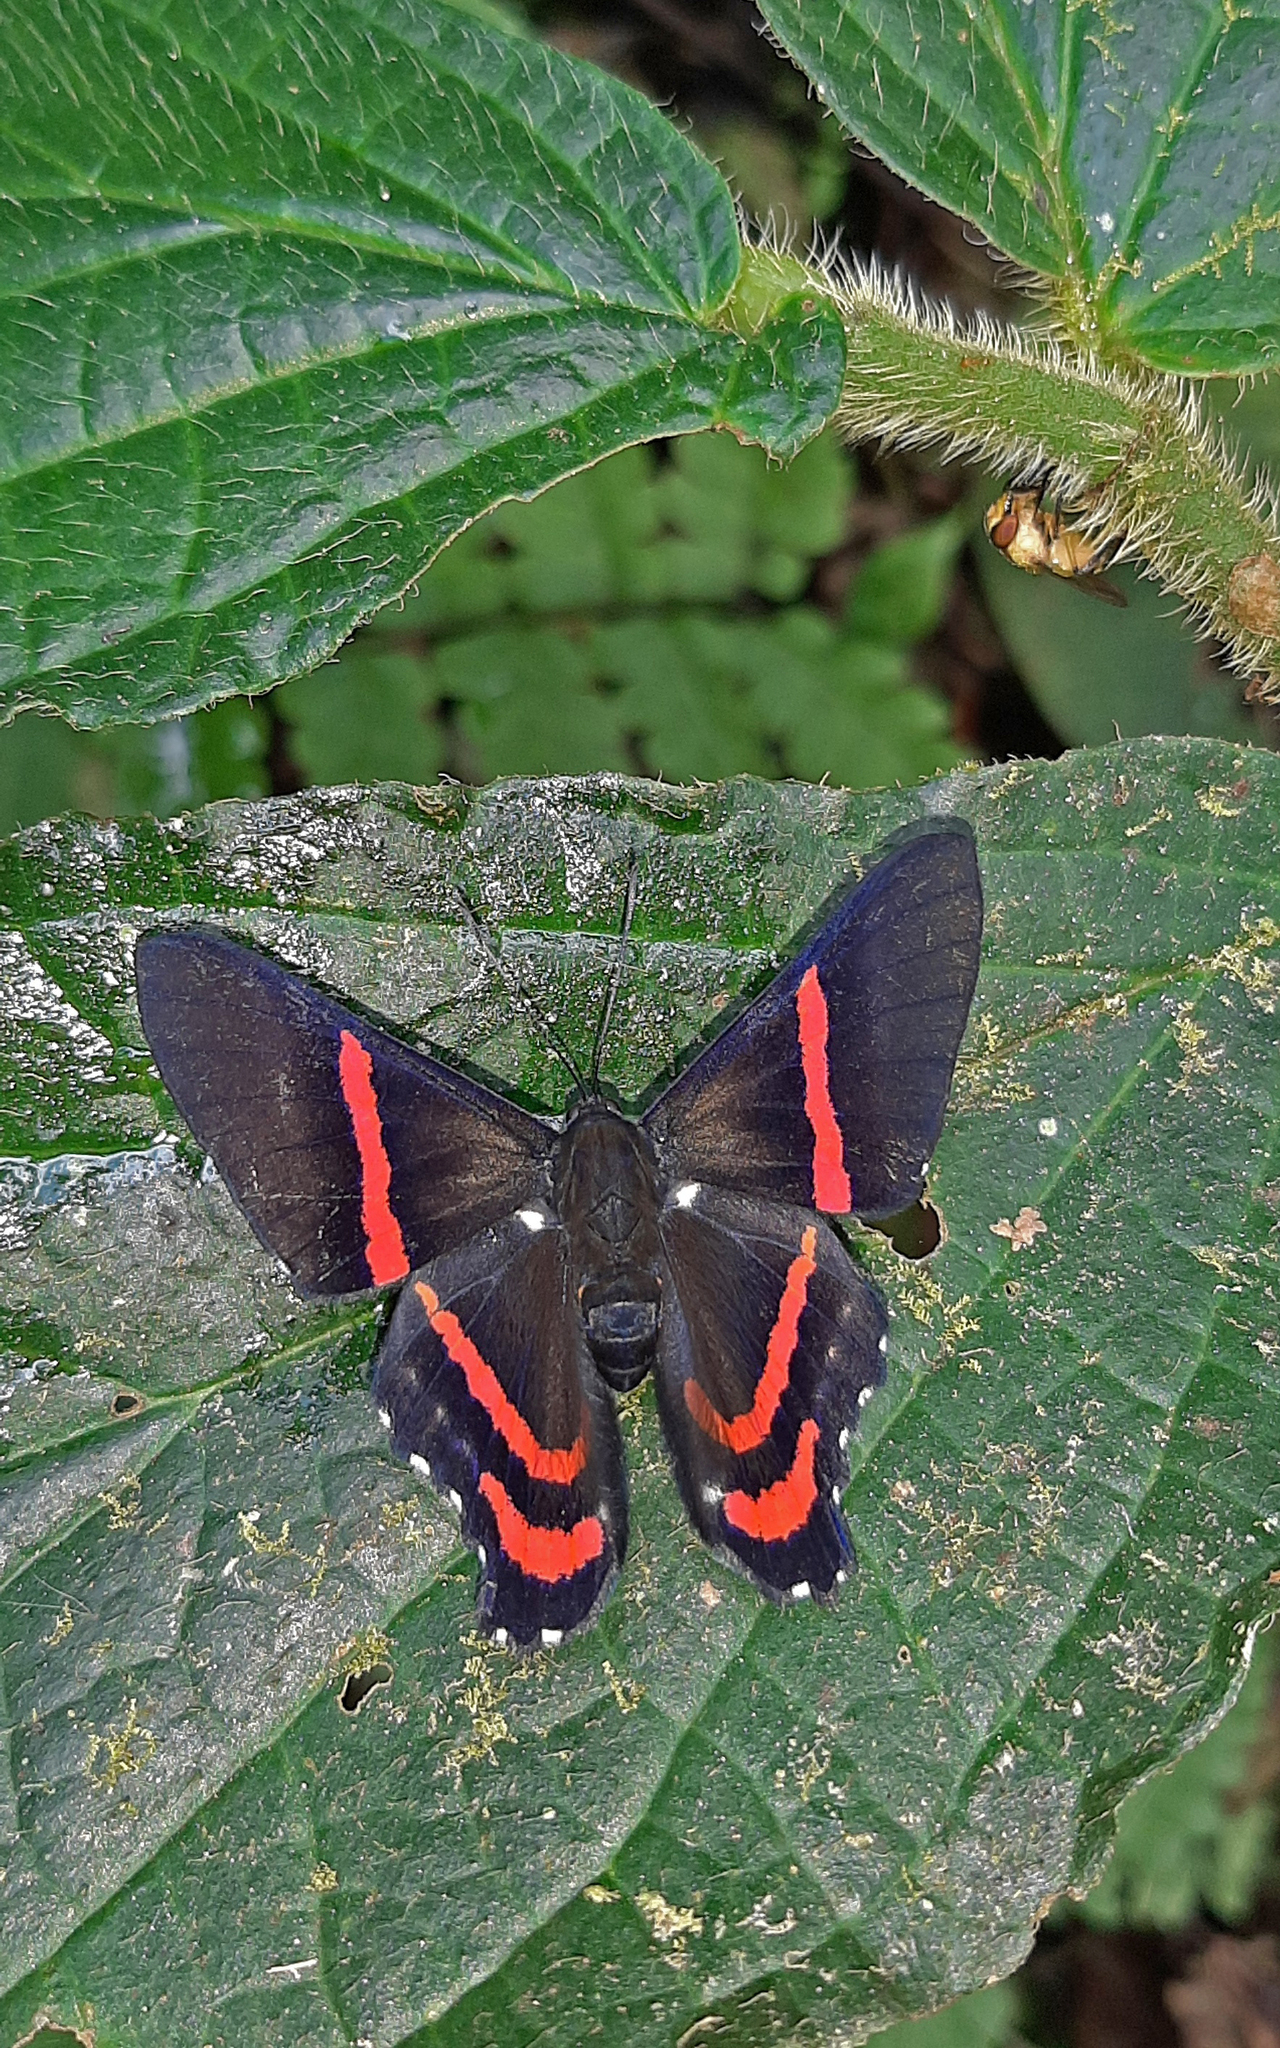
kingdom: Animalia
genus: Ancyluris
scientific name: Ancyluris meliboeus
